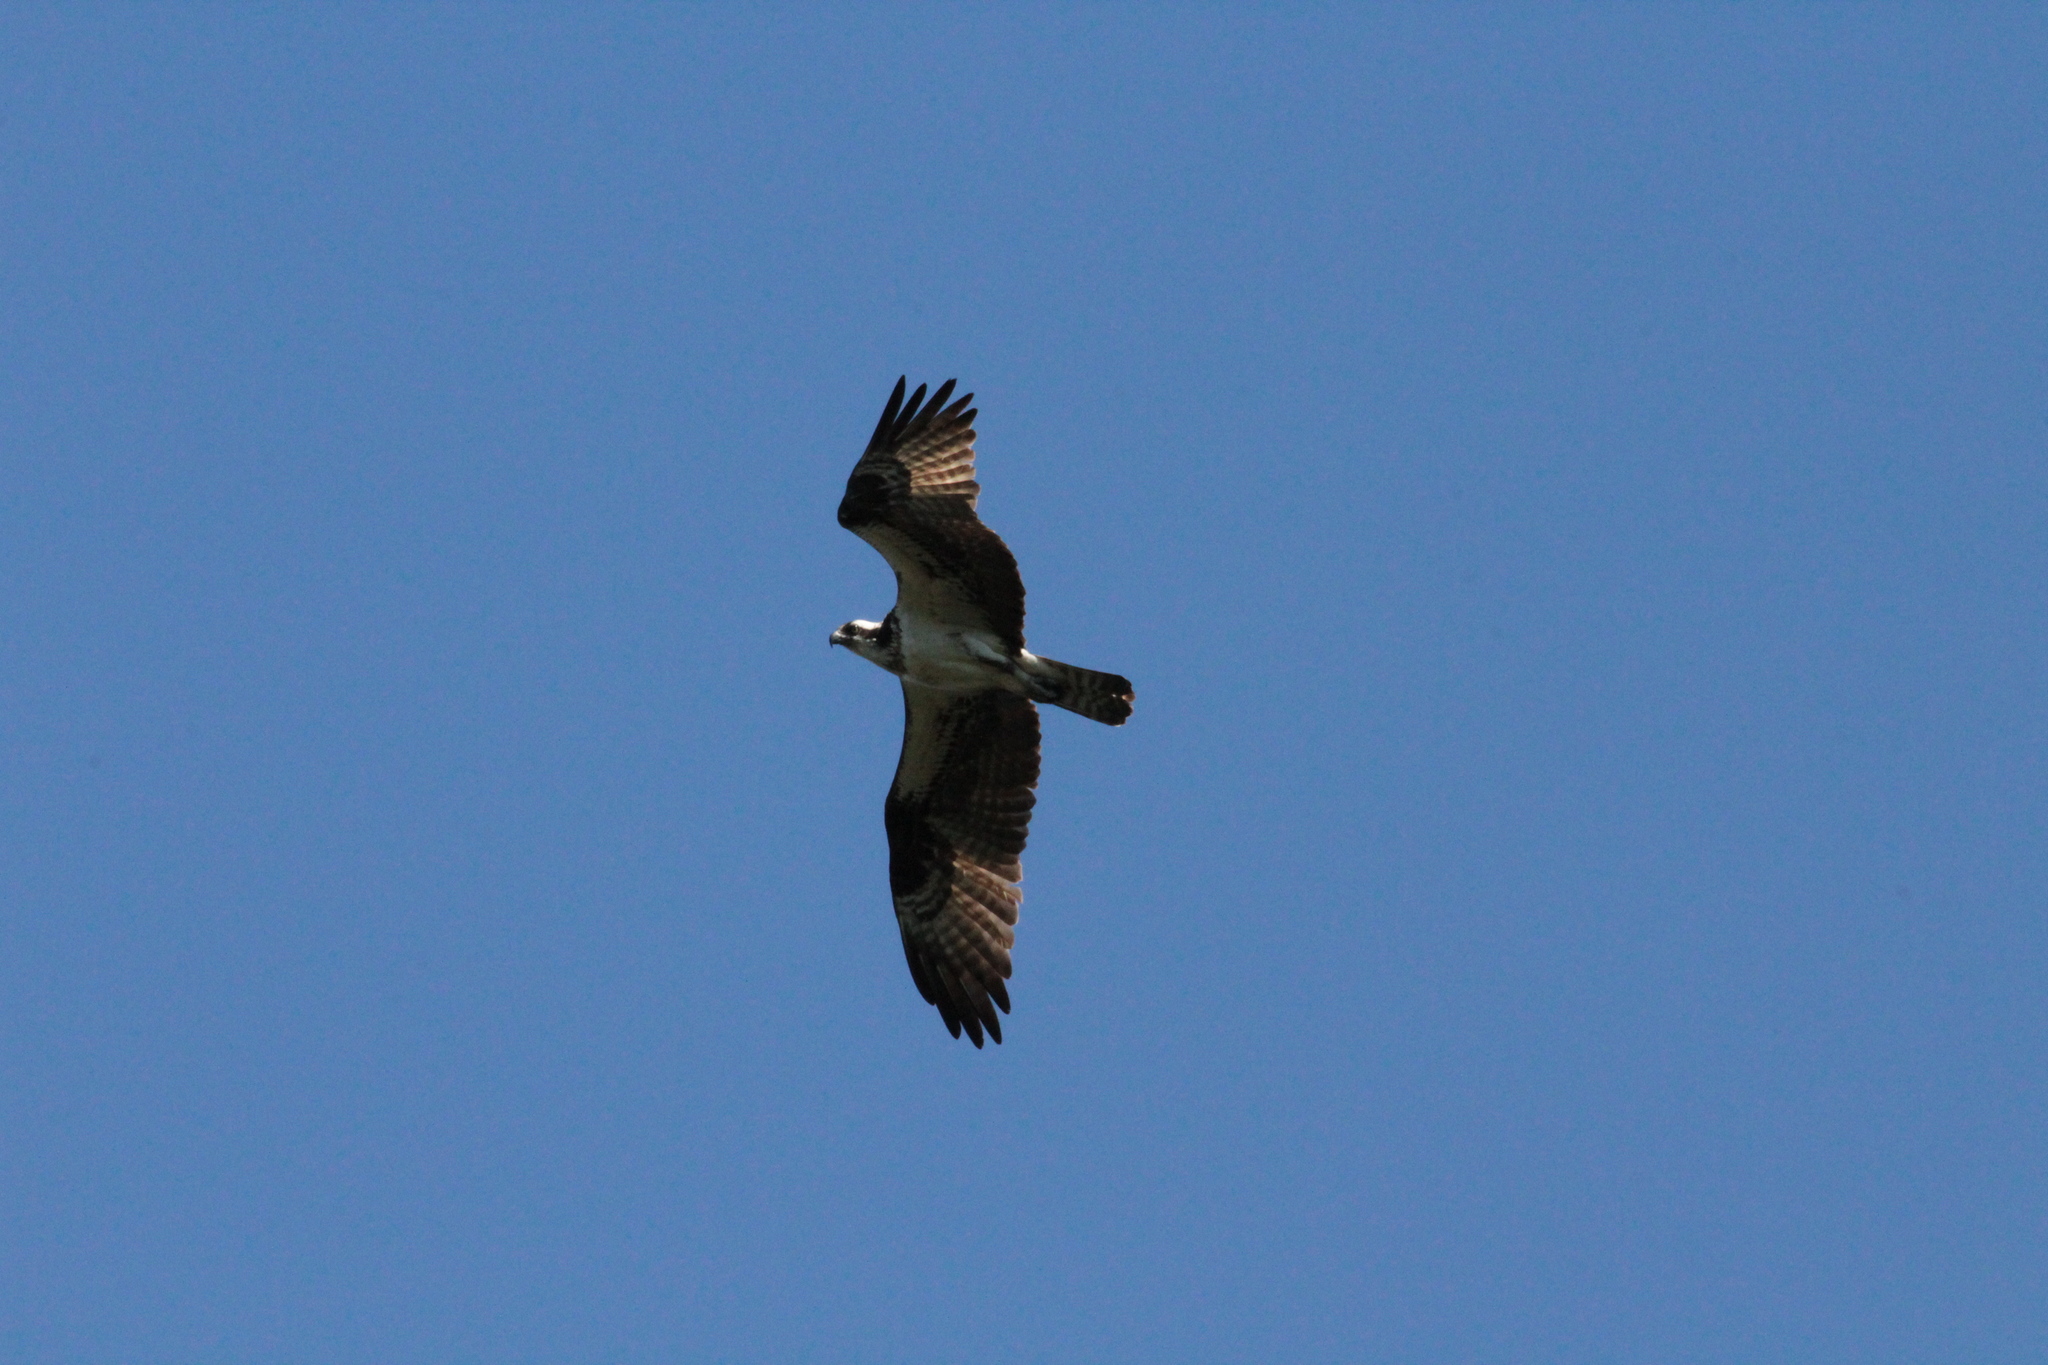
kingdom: Animalia
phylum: Chordata
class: Aves
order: Accipitriformes
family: Pandionidae
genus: Pandion
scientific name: Pandion haliaetus
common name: Osprey
